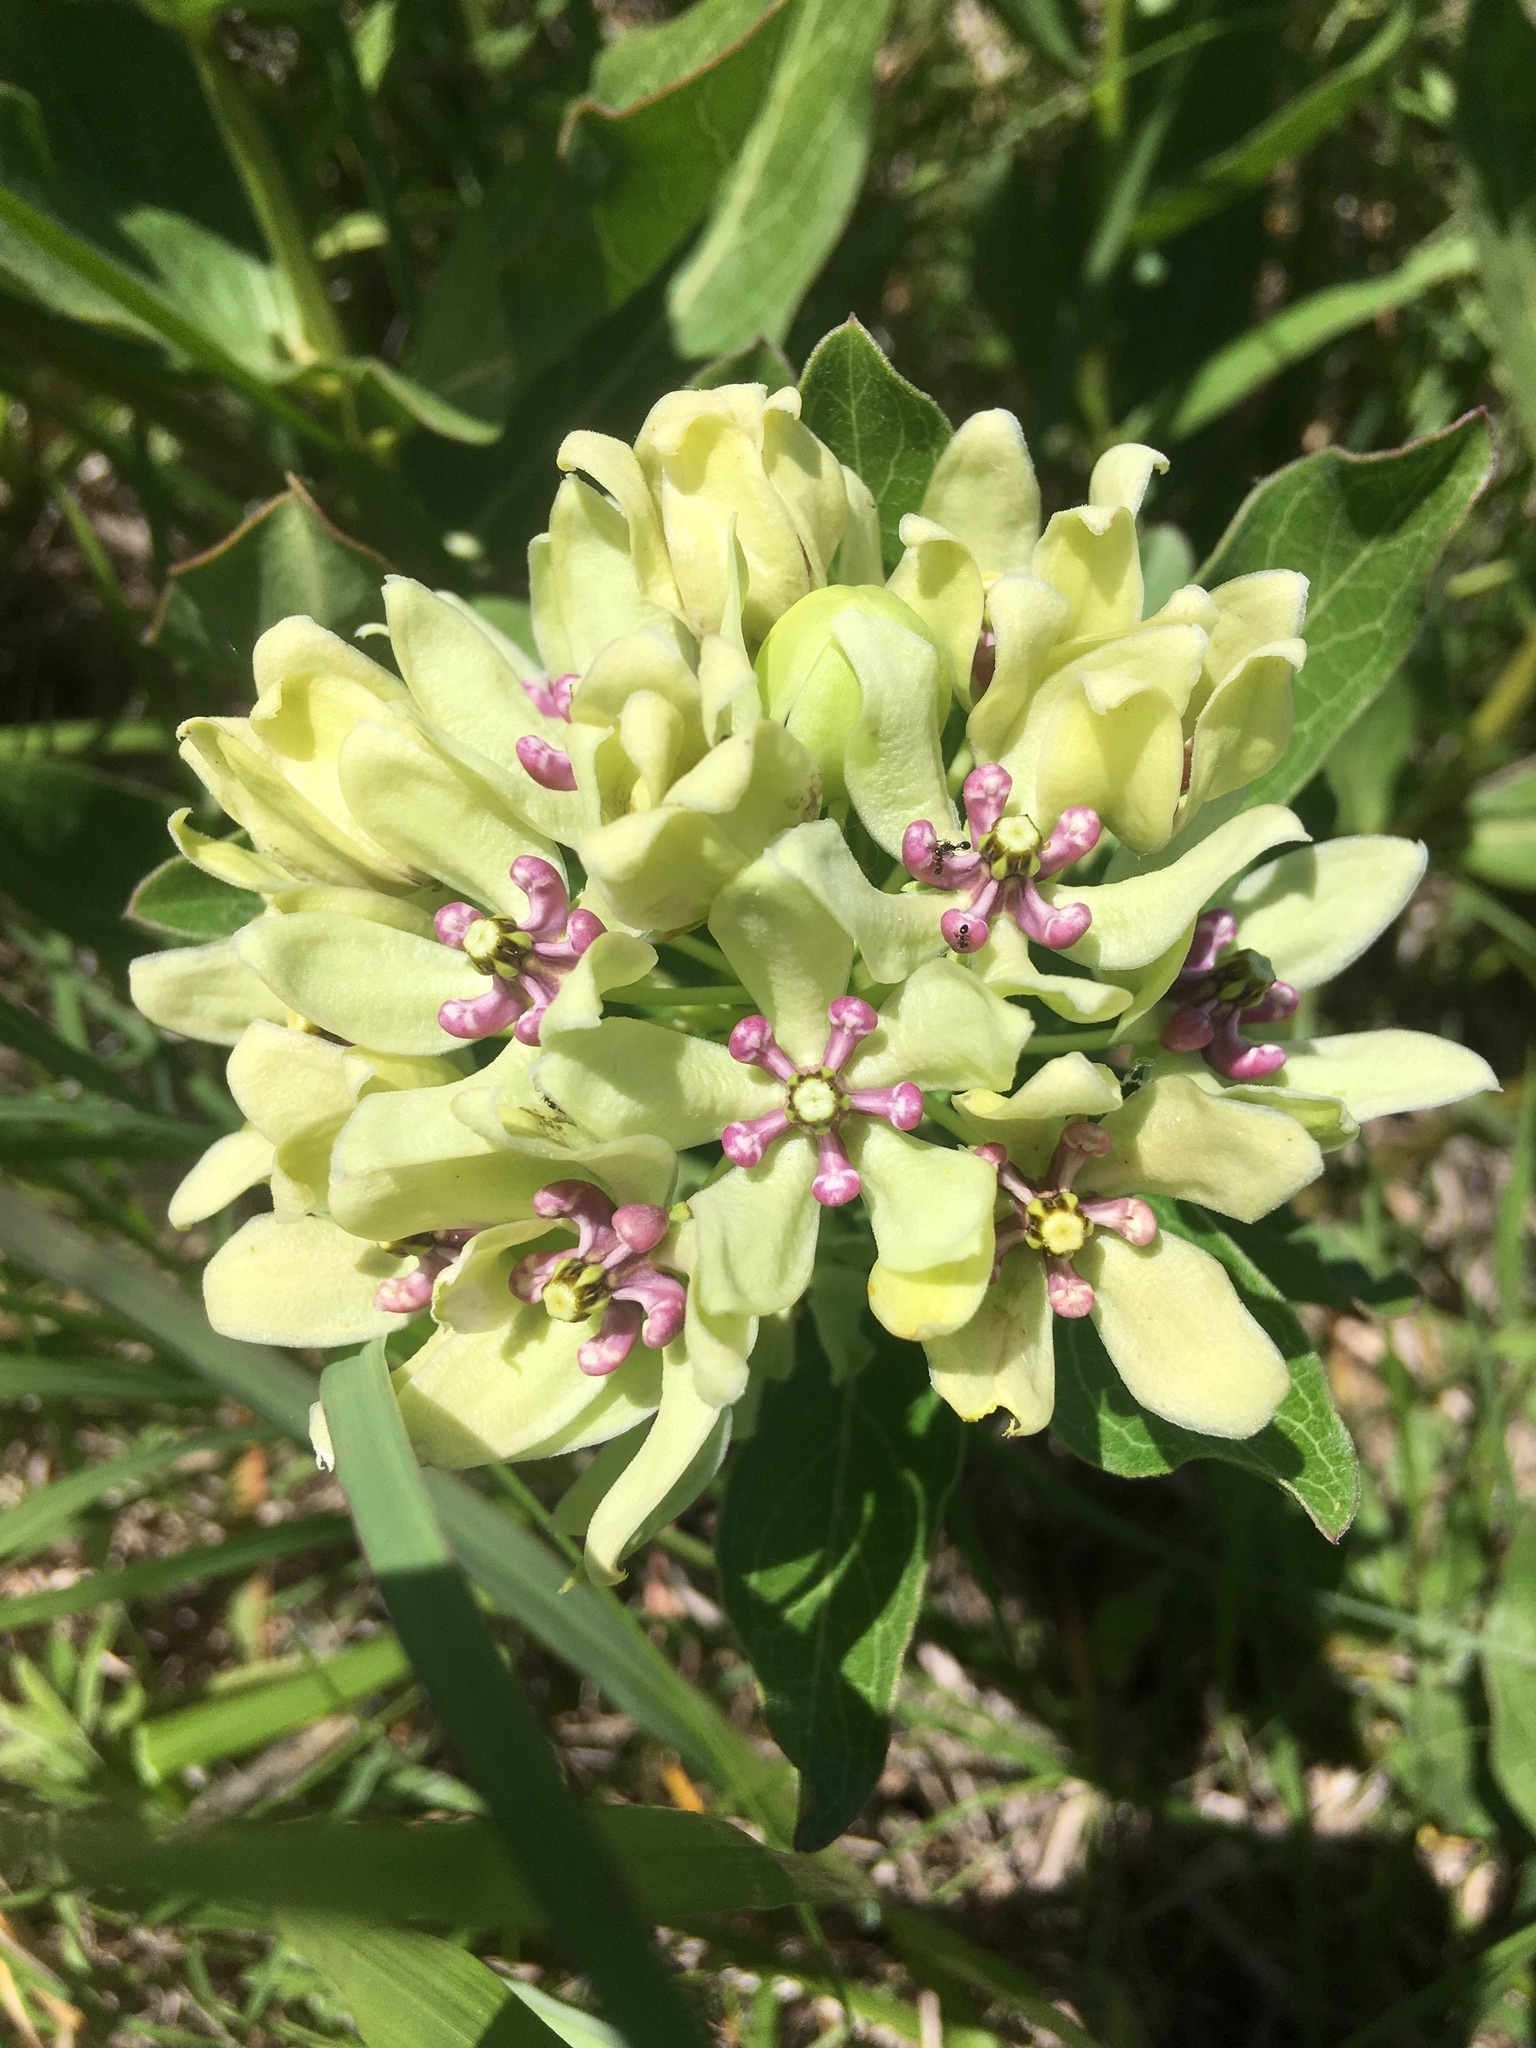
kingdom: Plantae
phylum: Tracheophyta
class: Magnoliopsida
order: Gentianales
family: Apocynaceae
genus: Asclepias
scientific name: Asclepias viridis
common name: Antelope-horns
